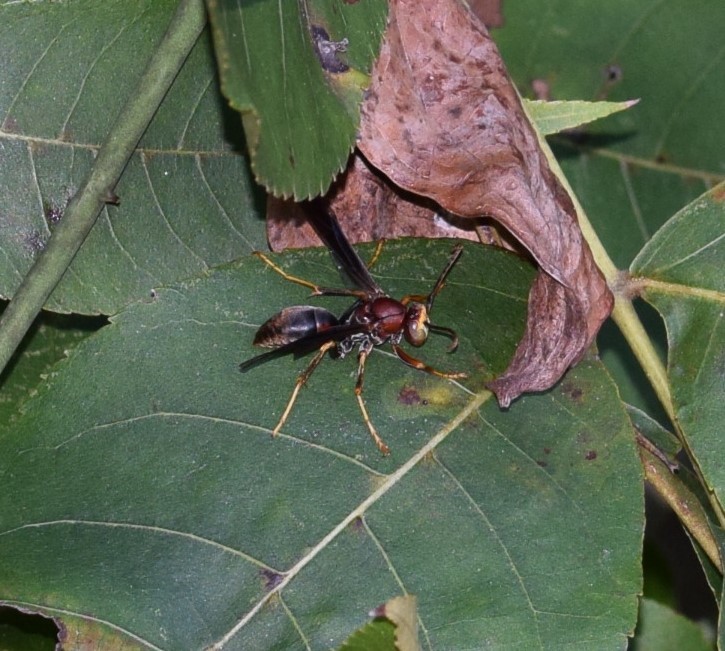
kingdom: Animalia
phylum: Arthropoda
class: Insecta
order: Hymenoptera
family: Eumenidae
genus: Polistes
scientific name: Polistes metricus
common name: Metric paper wasp
